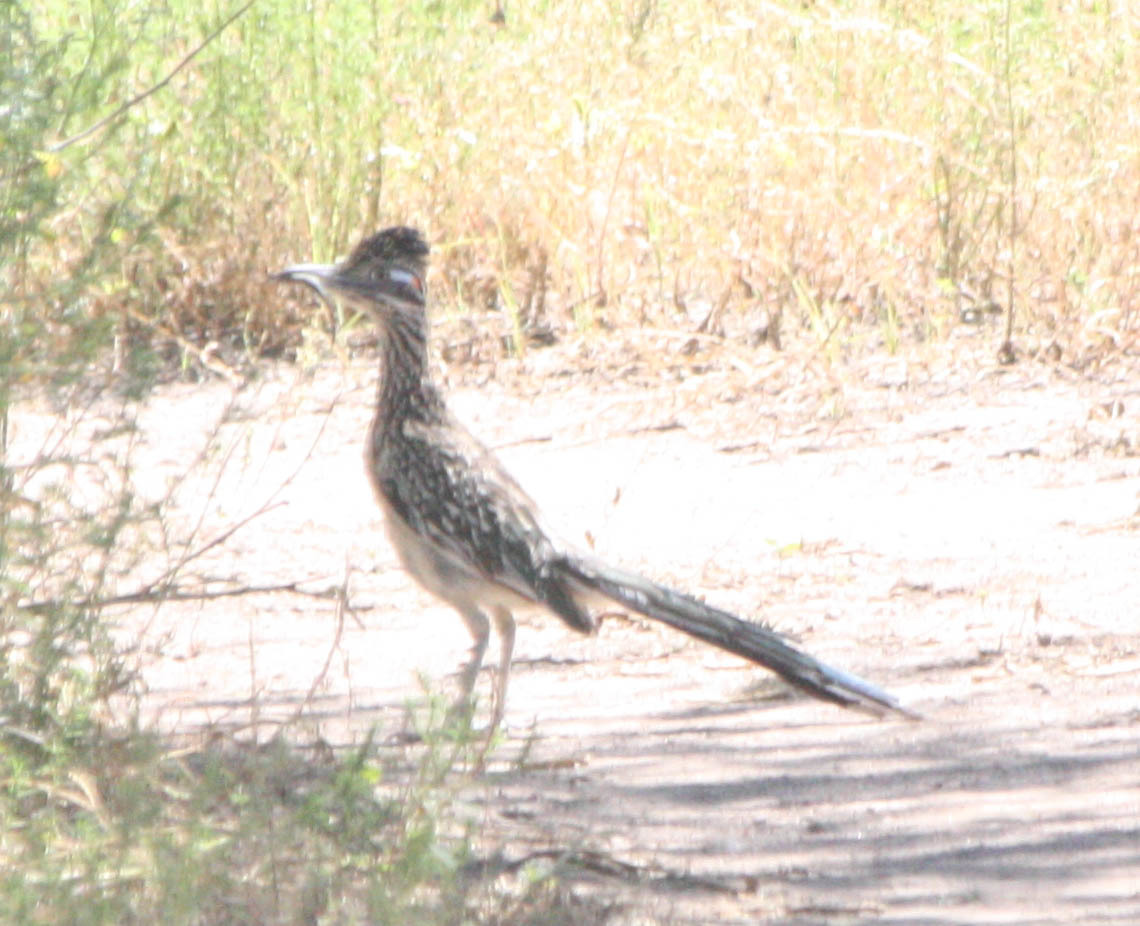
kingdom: Animalia
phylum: Chordata
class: Aves
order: Cuculiformes
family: Cuculidae
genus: Geococcyx
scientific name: Geococcyx californianus
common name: Greater roadrunner
